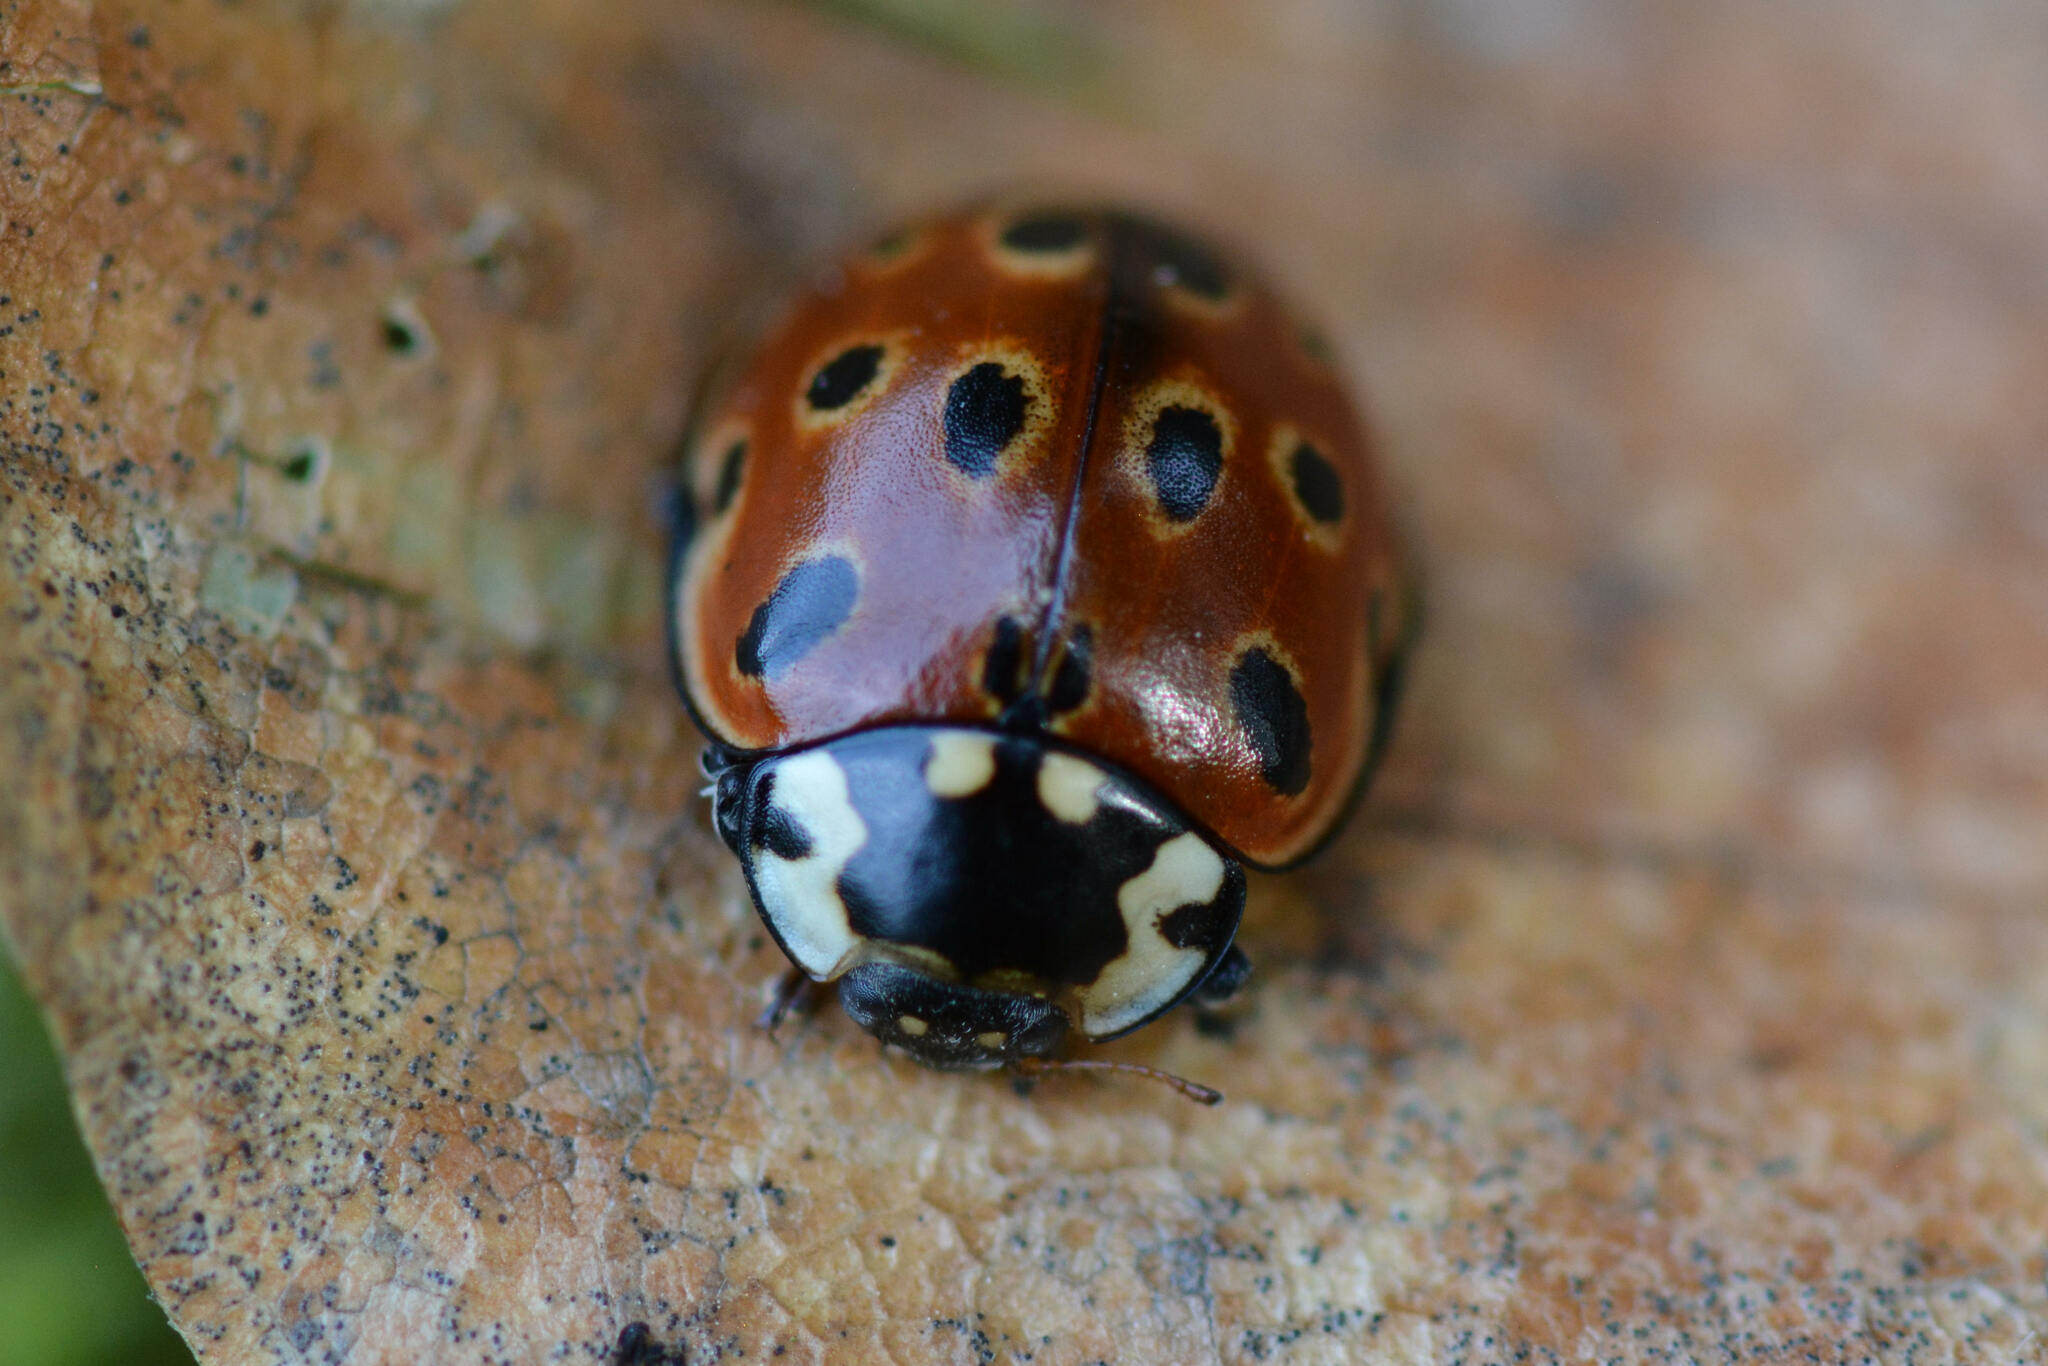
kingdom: Animalia
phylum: Arthropoda
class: Insecta
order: Coleoptera
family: Coccinellidae
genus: Anatis
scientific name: Anatis ocellata
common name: Eyed ladybird
